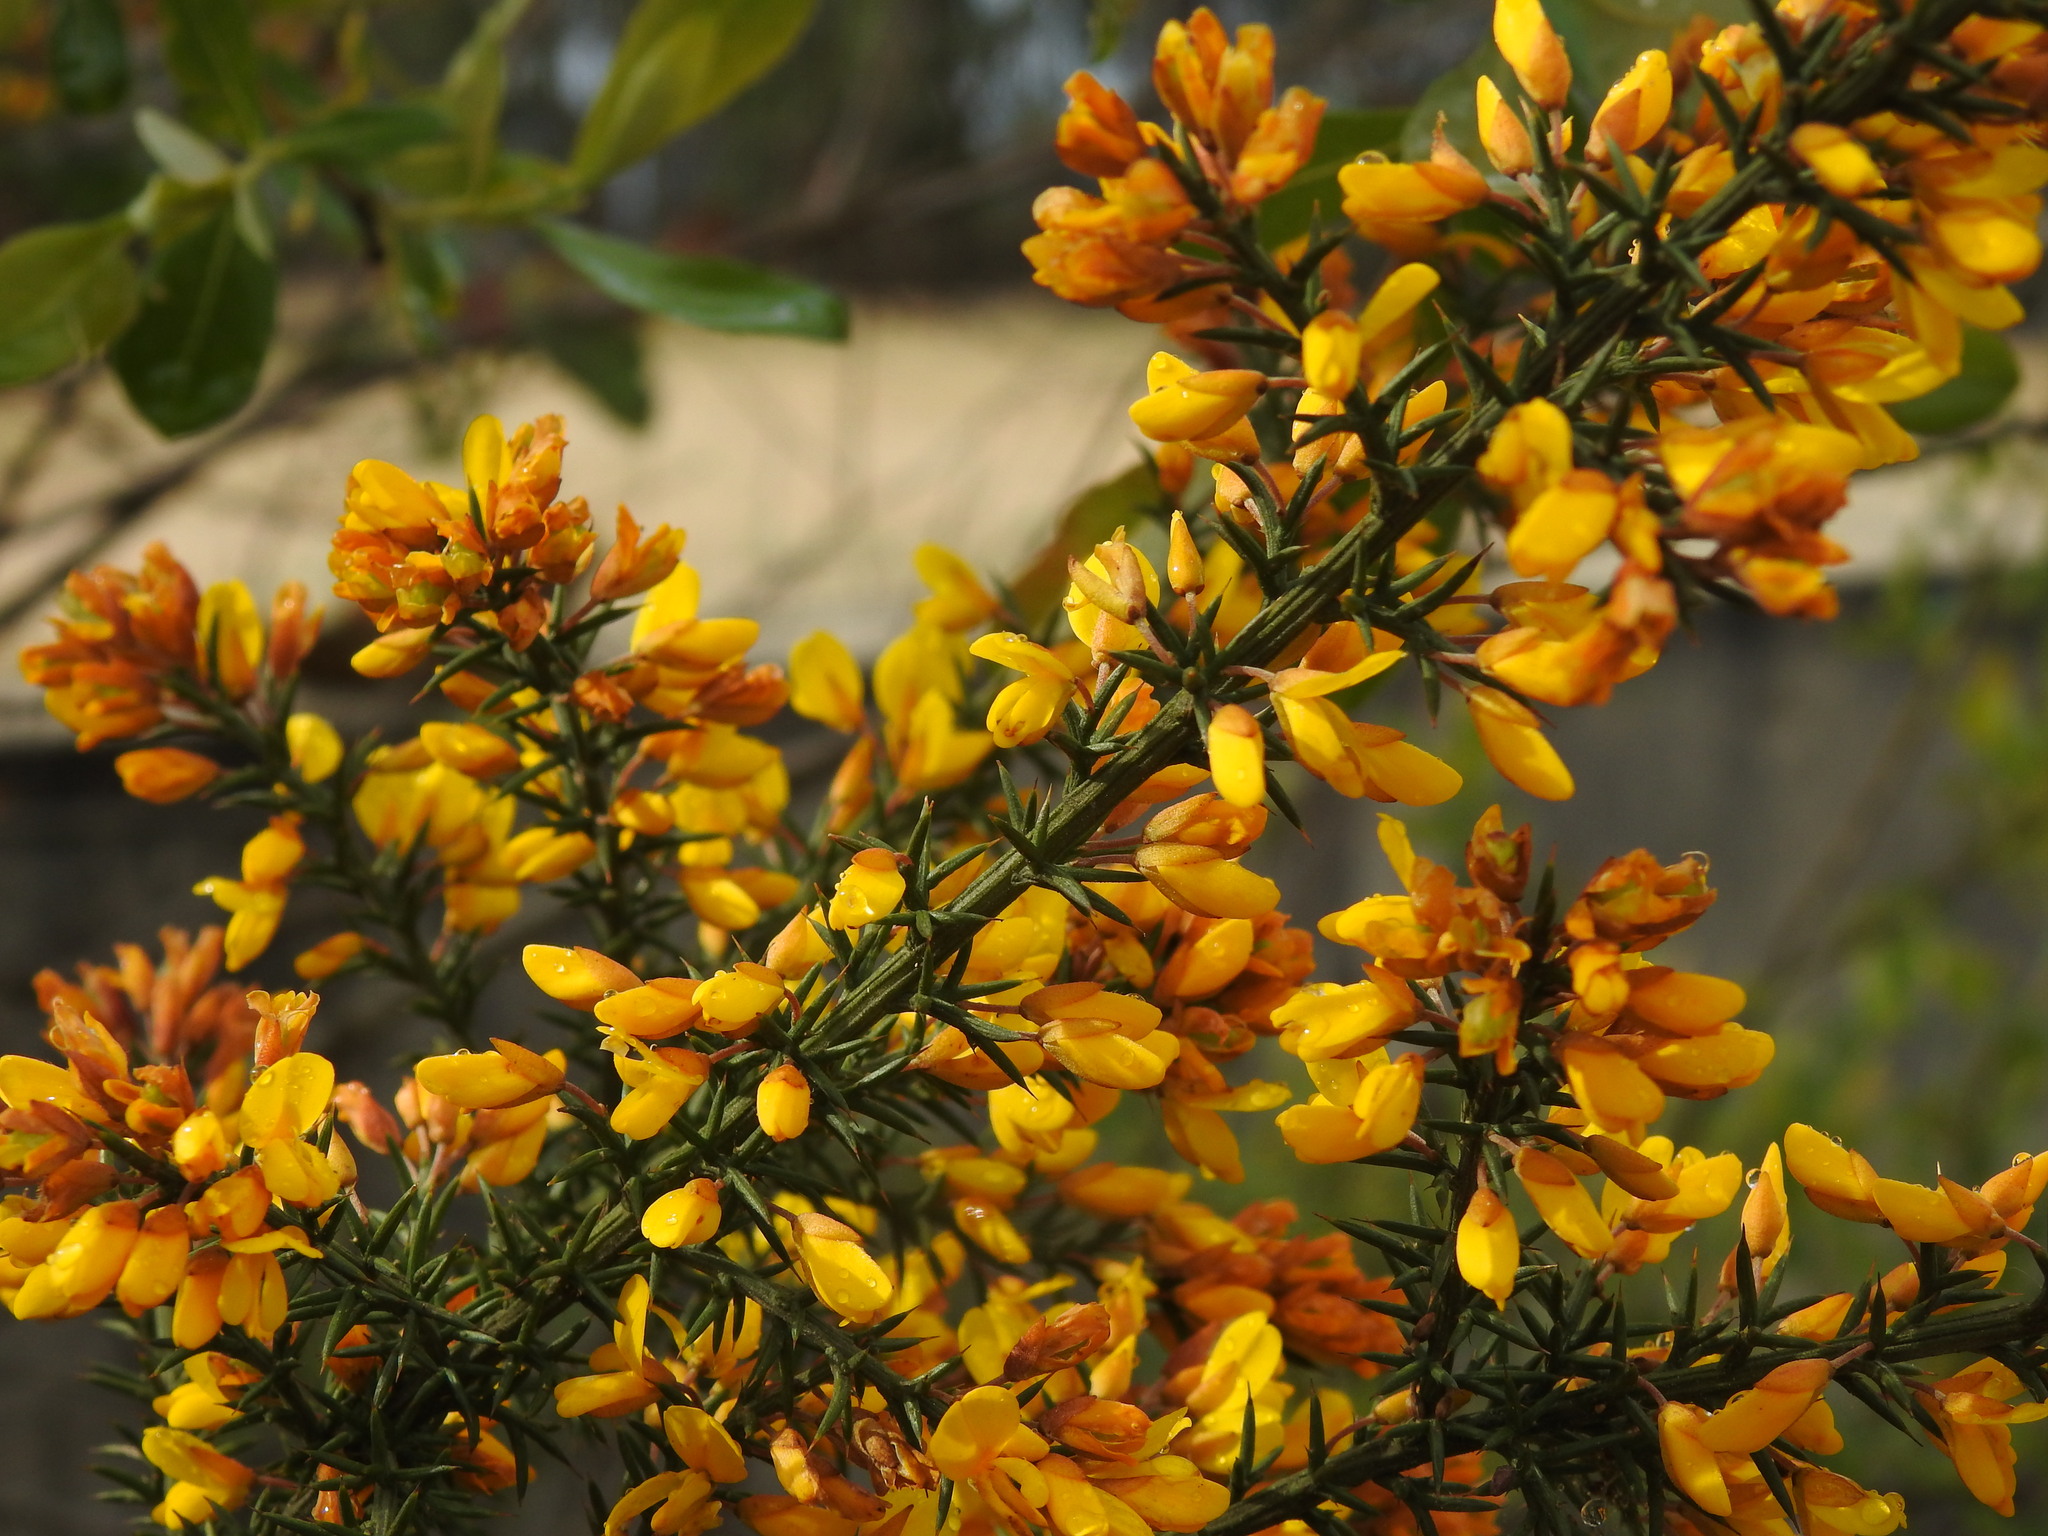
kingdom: Plantae
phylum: Tracheophyta
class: Magnoliopsida
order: Fabales
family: Fabaceae
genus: Ulex
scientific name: Ulex micranthus
